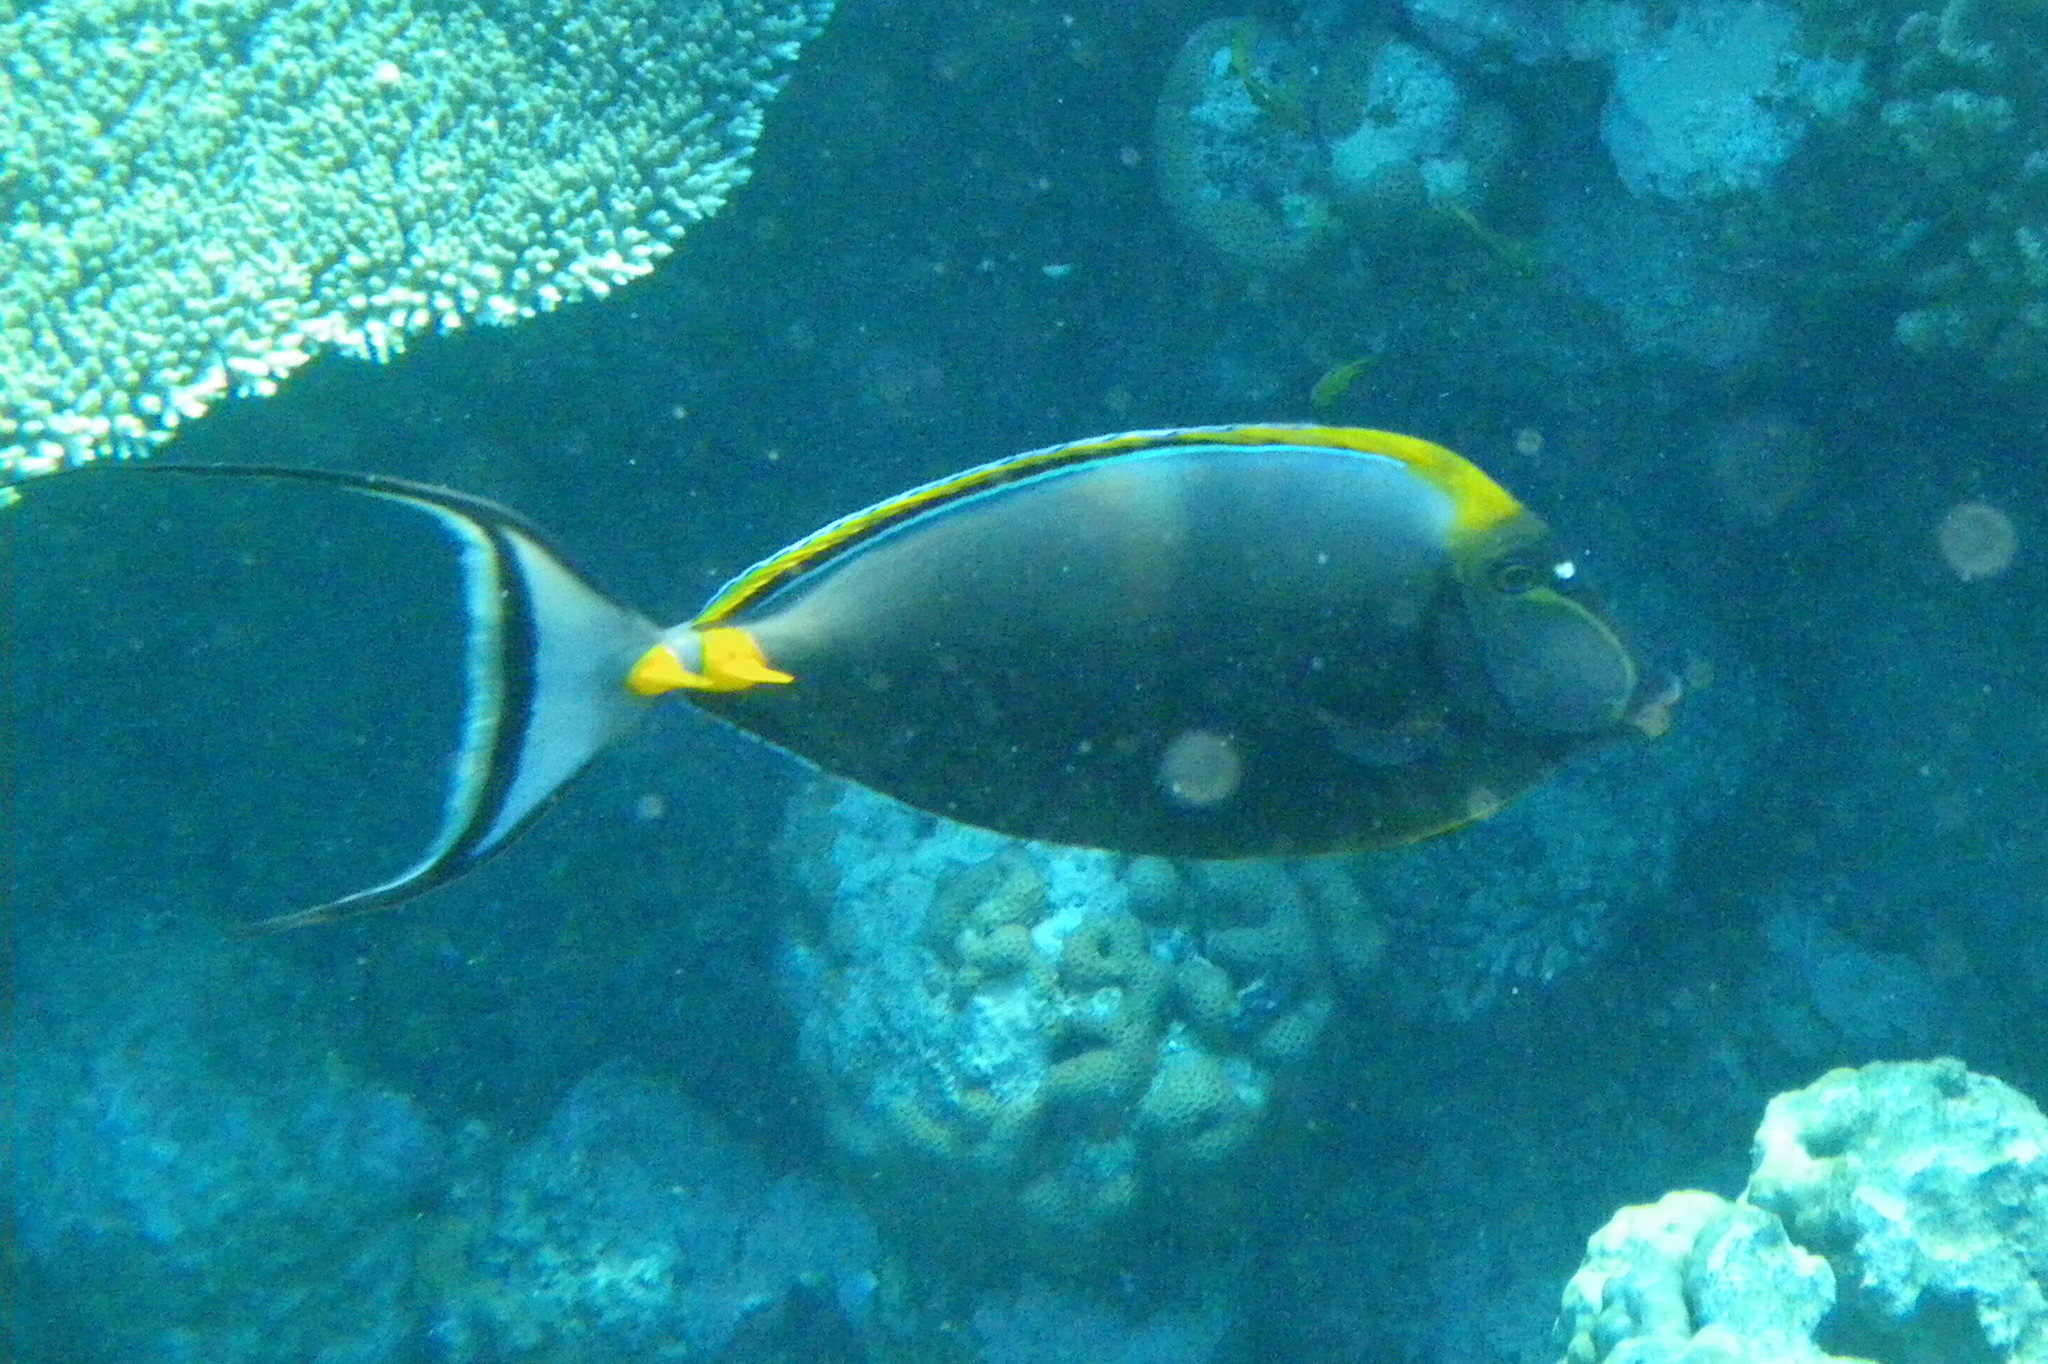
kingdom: Animalia
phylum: Chordata
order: Perciformes
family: Acanthuridae
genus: Naso
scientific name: Naso elegans
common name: Orangespine unicornfish
